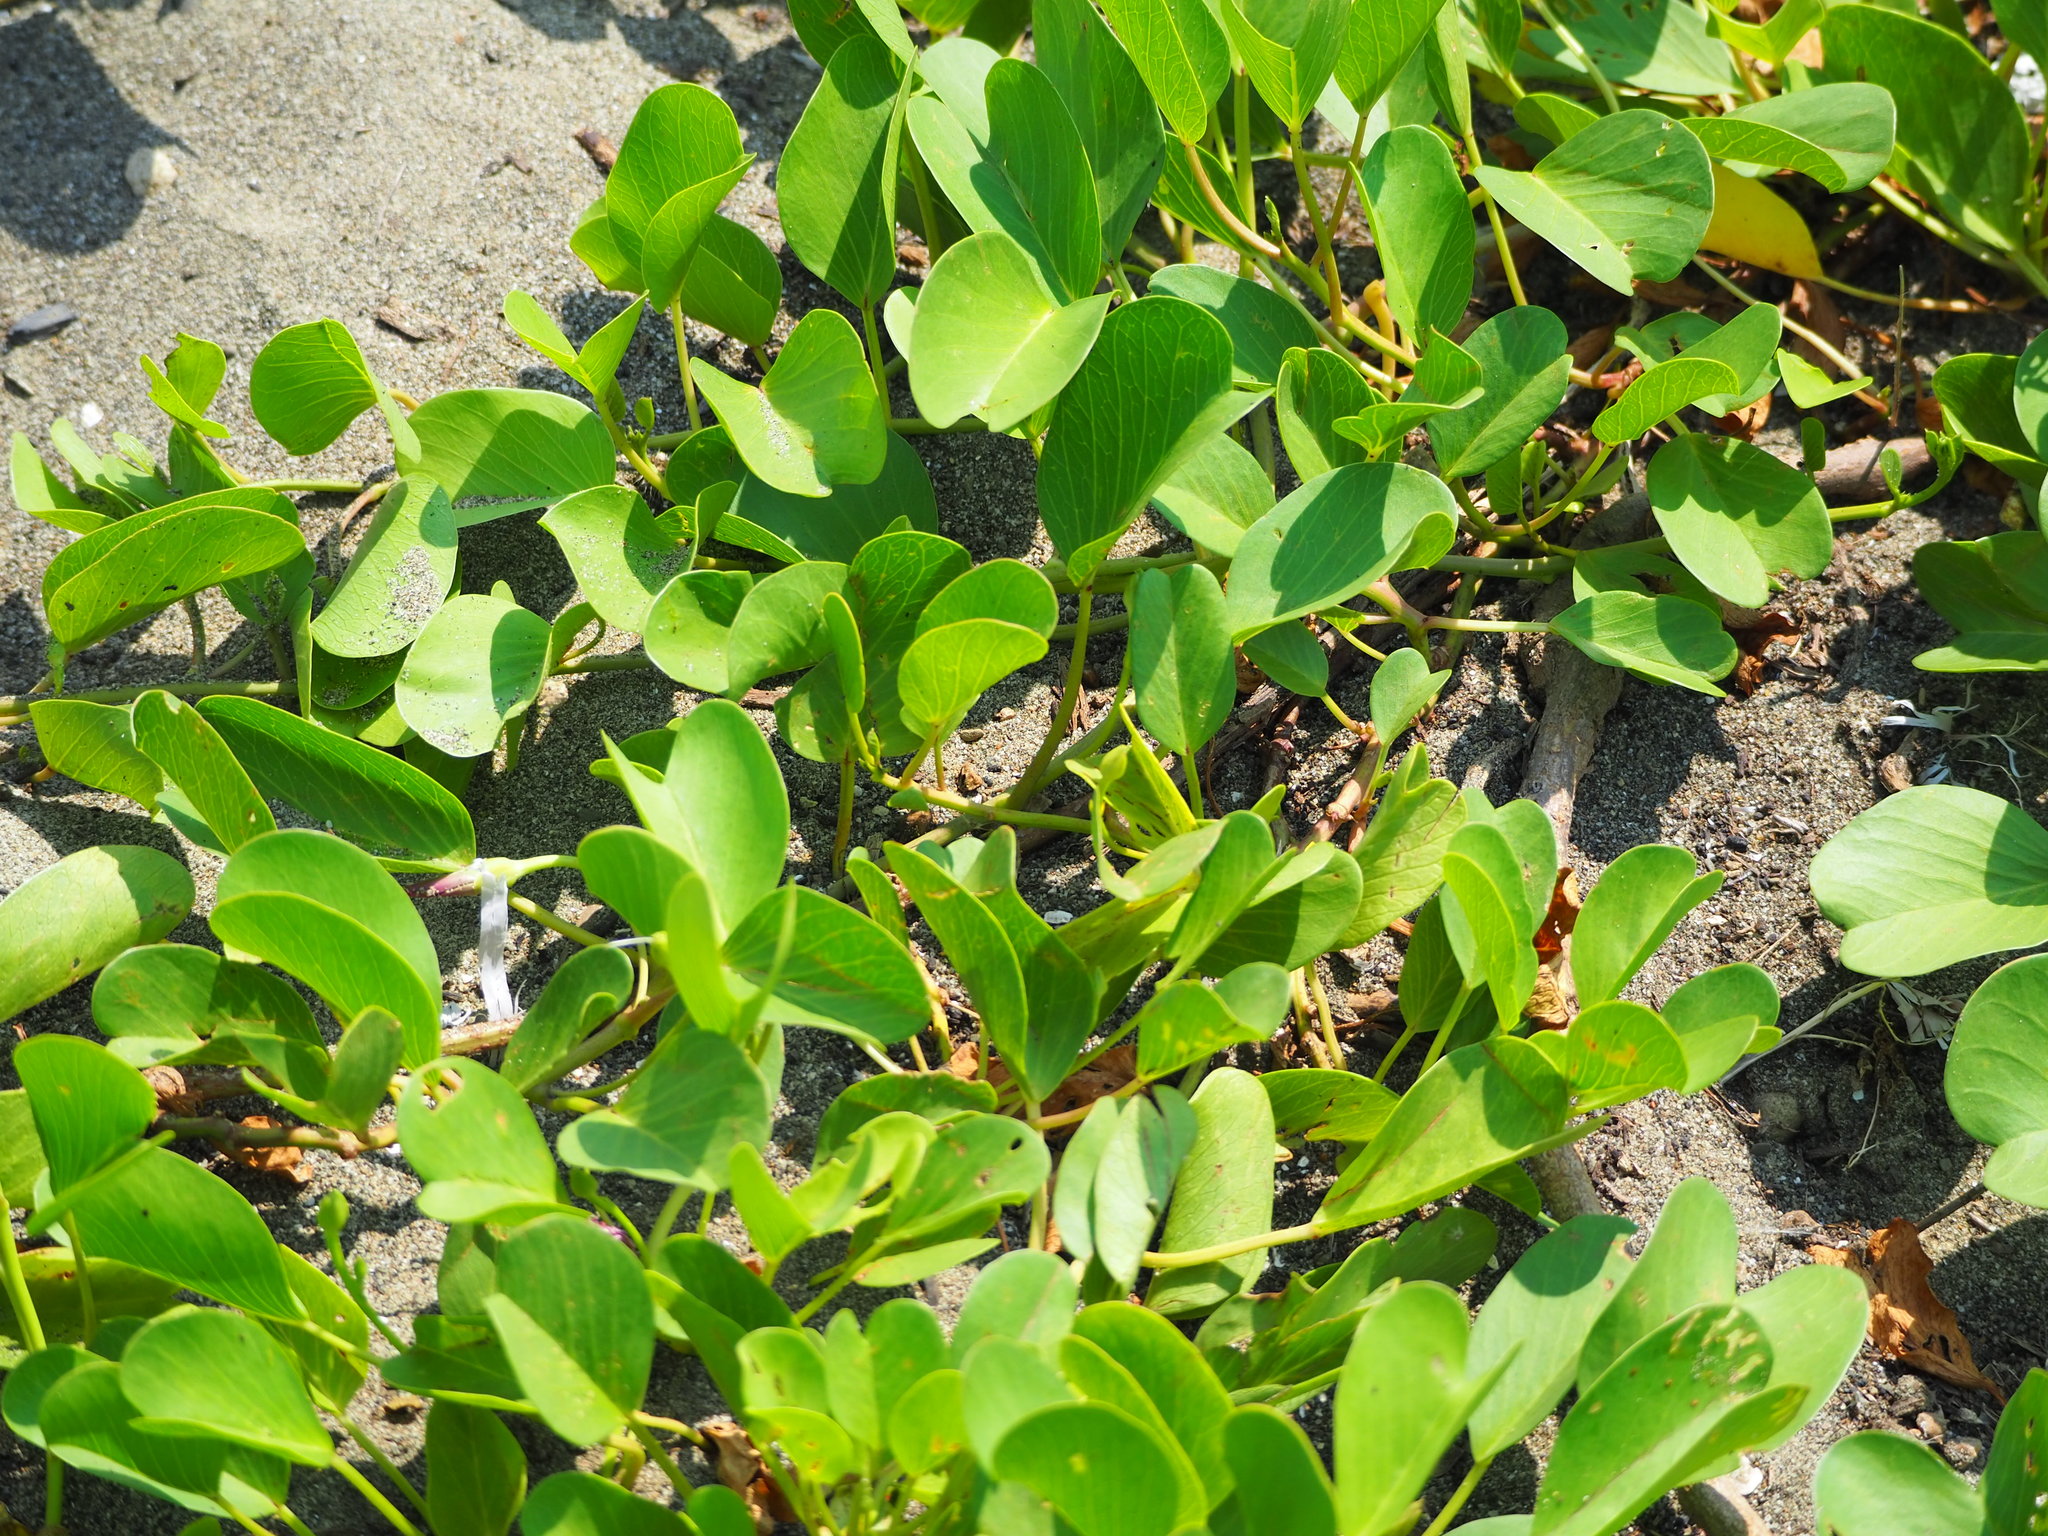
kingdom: Plantae
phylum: Tracheophyta
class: Magnoliopsida
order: Solanales
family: Convolvulaceae
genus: Ipomoea
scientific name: Ipomoea pes-caprae
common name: Beach morning glory
